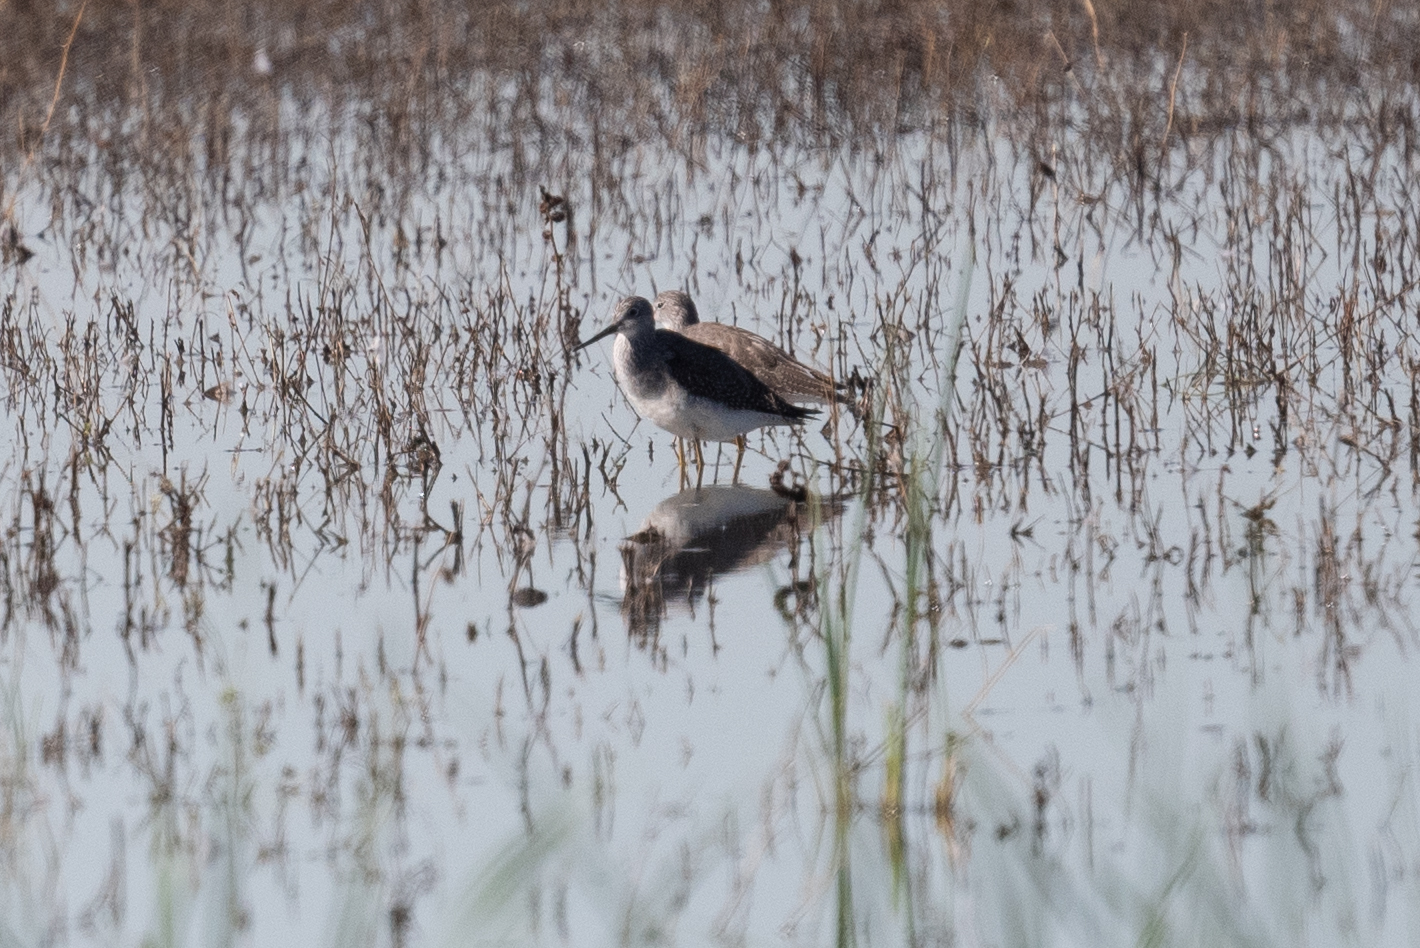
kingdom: Animalia
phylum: Chordata
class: Aves
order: Charadriiformes
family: Scolopacidae
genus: Tringa
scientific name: Tringa melanoleuca
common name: Greater yellowlegs
